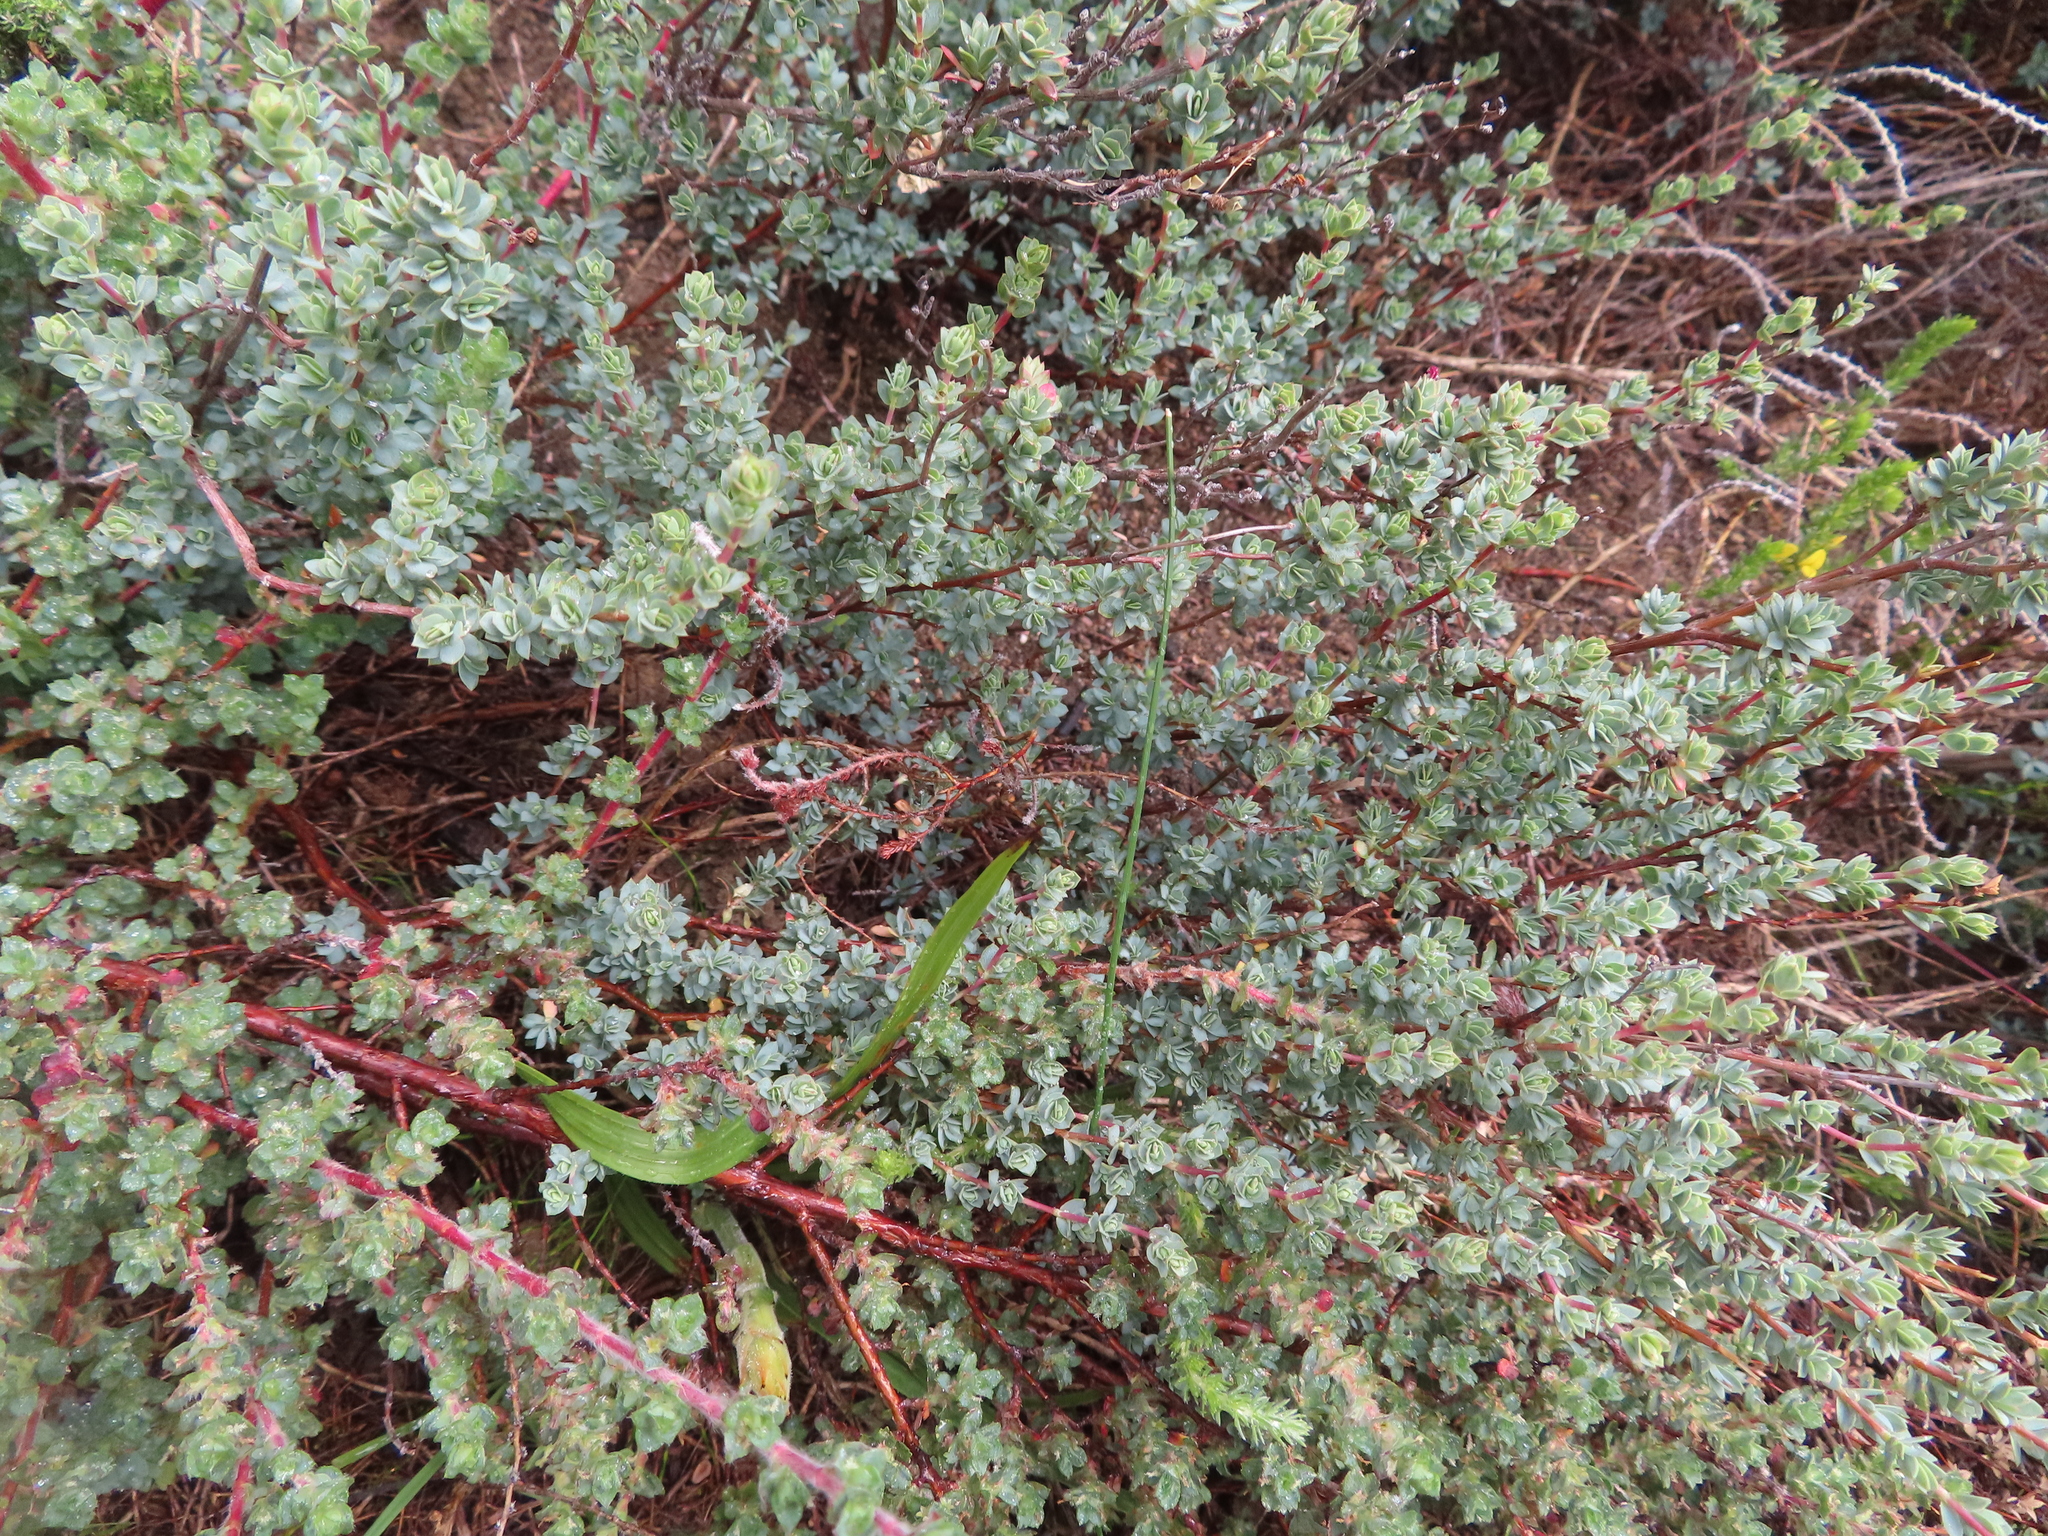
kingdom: Plantae
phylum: Tracheophyta
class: Magnoliopsida
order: Rosales
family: Rosaceae
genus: Cliffortia
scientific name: Cliffortia carinata
